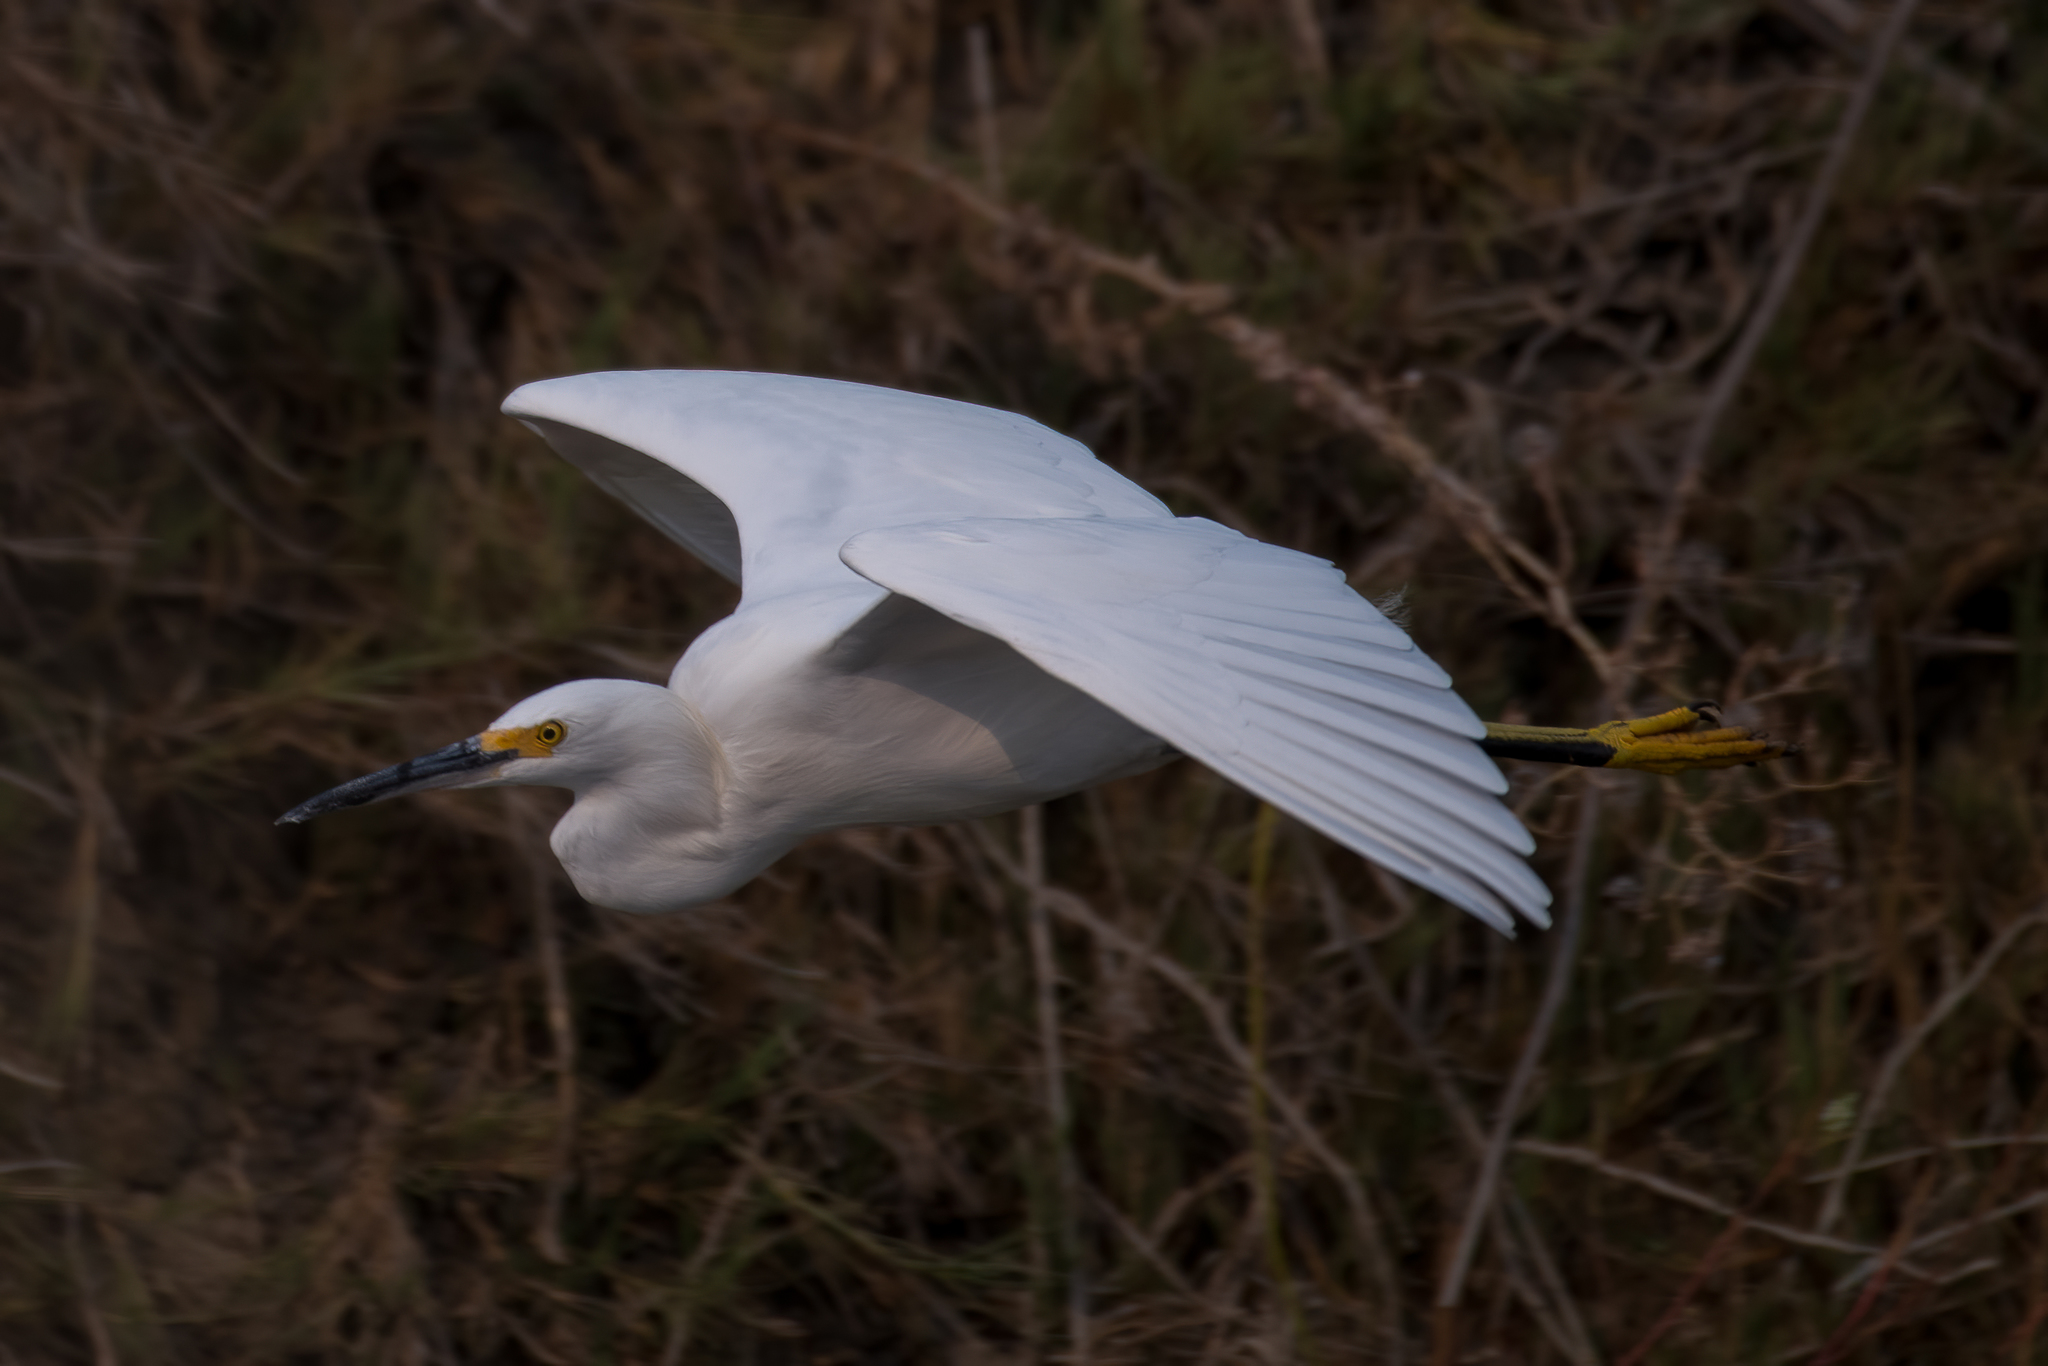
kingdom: Animalia
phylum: Chordata
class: Aves
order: Pelecaniformes
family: Ardeidae
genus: Egretta
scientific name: Egretta thula
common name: Snowy egret
